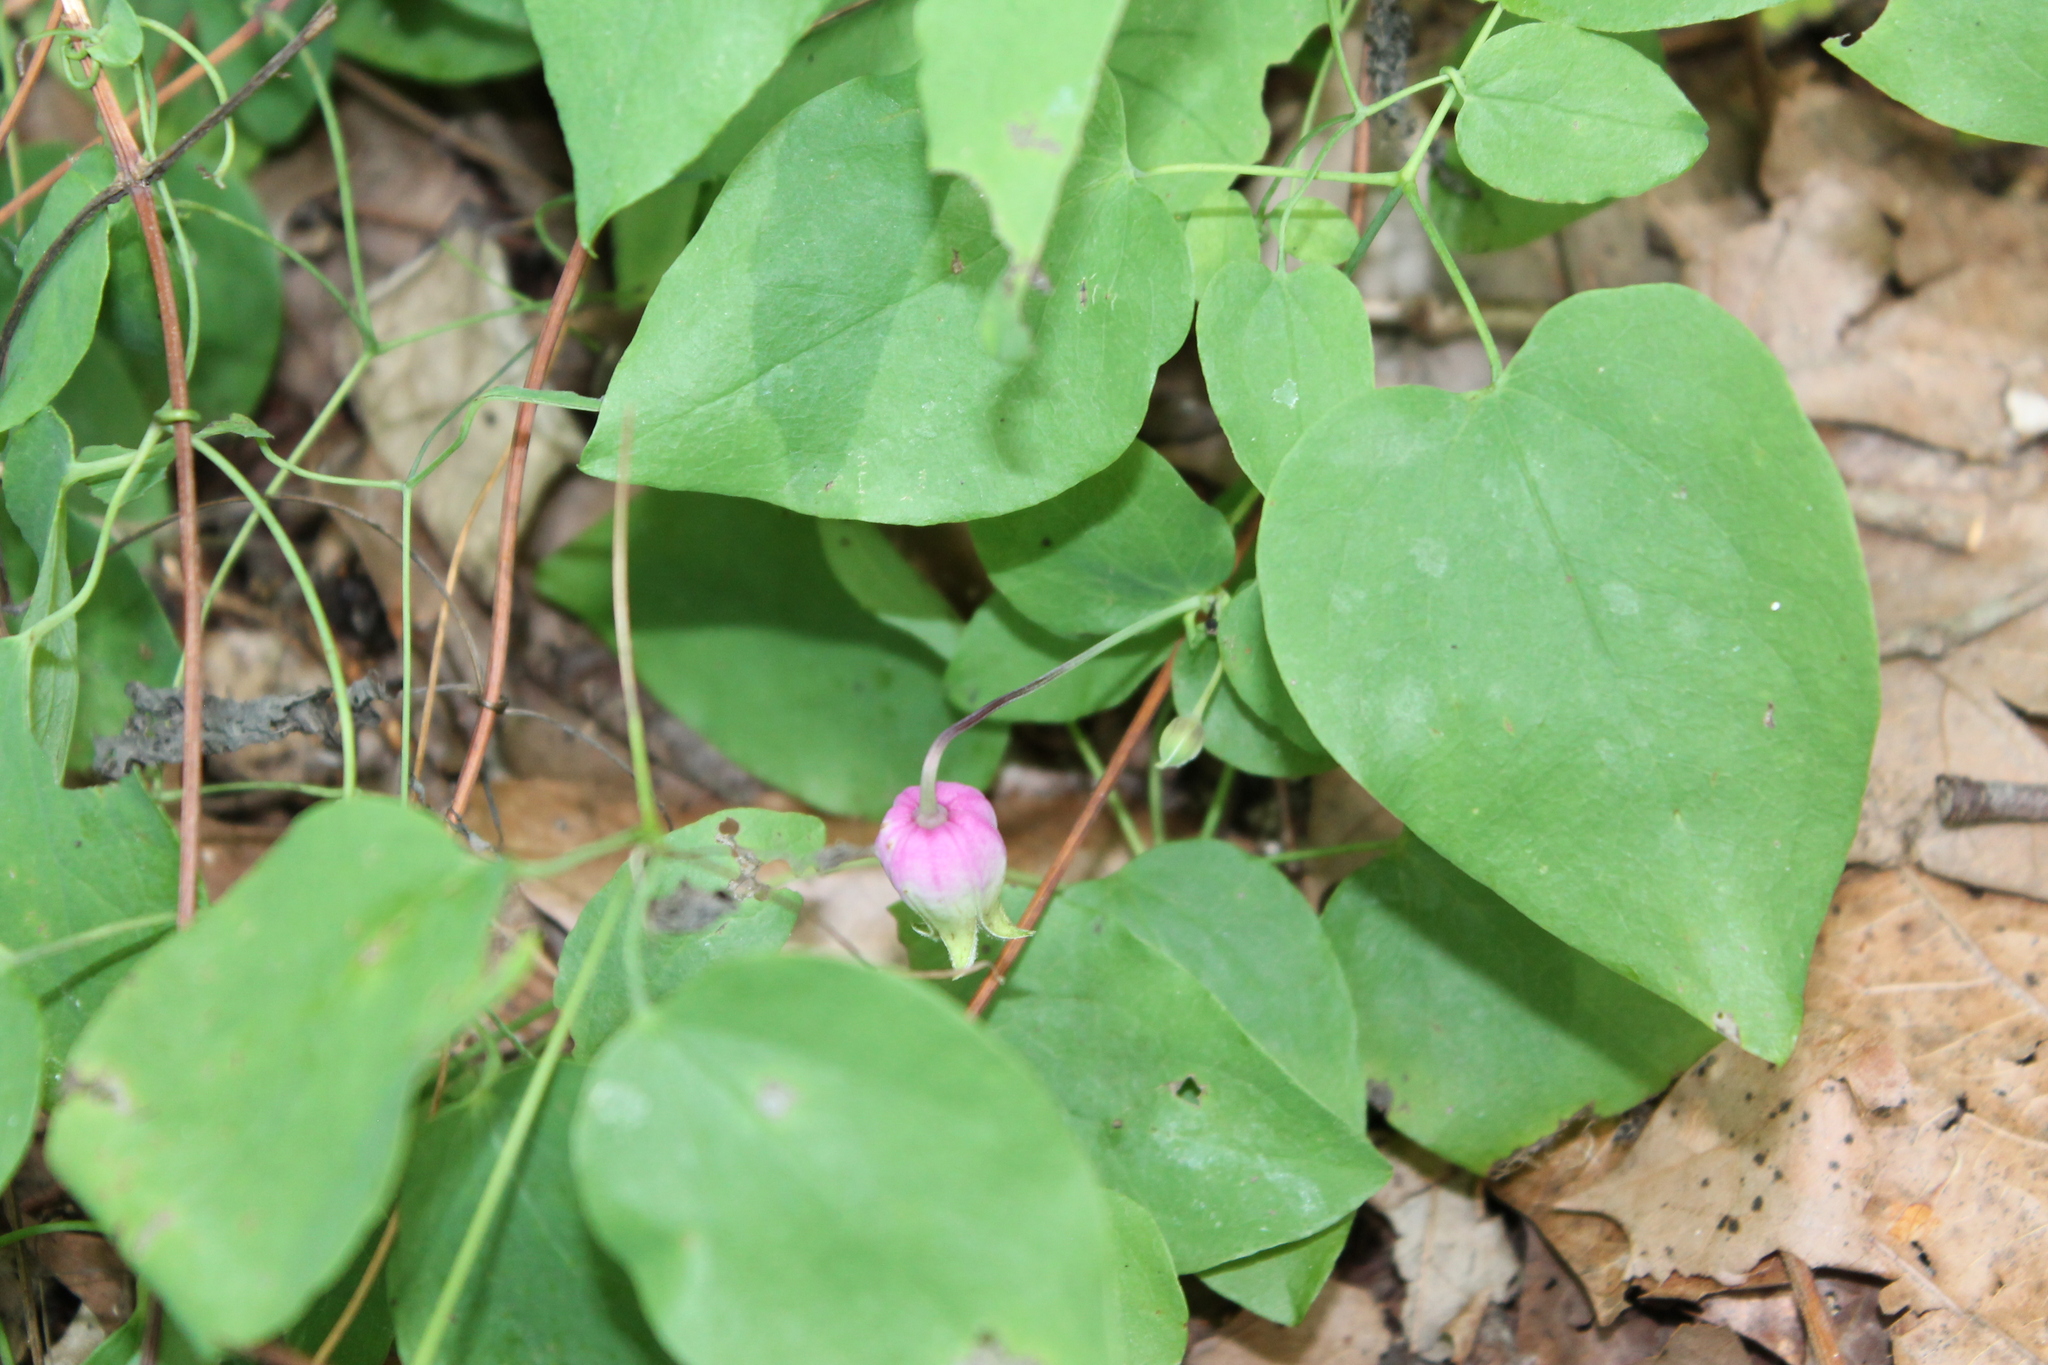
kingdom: Plantae
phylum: Tracheophyta
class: Magnoliopsida
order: Ranunculales
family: Ranunculaceae
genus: Clematis
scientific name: Clematis versicolor
